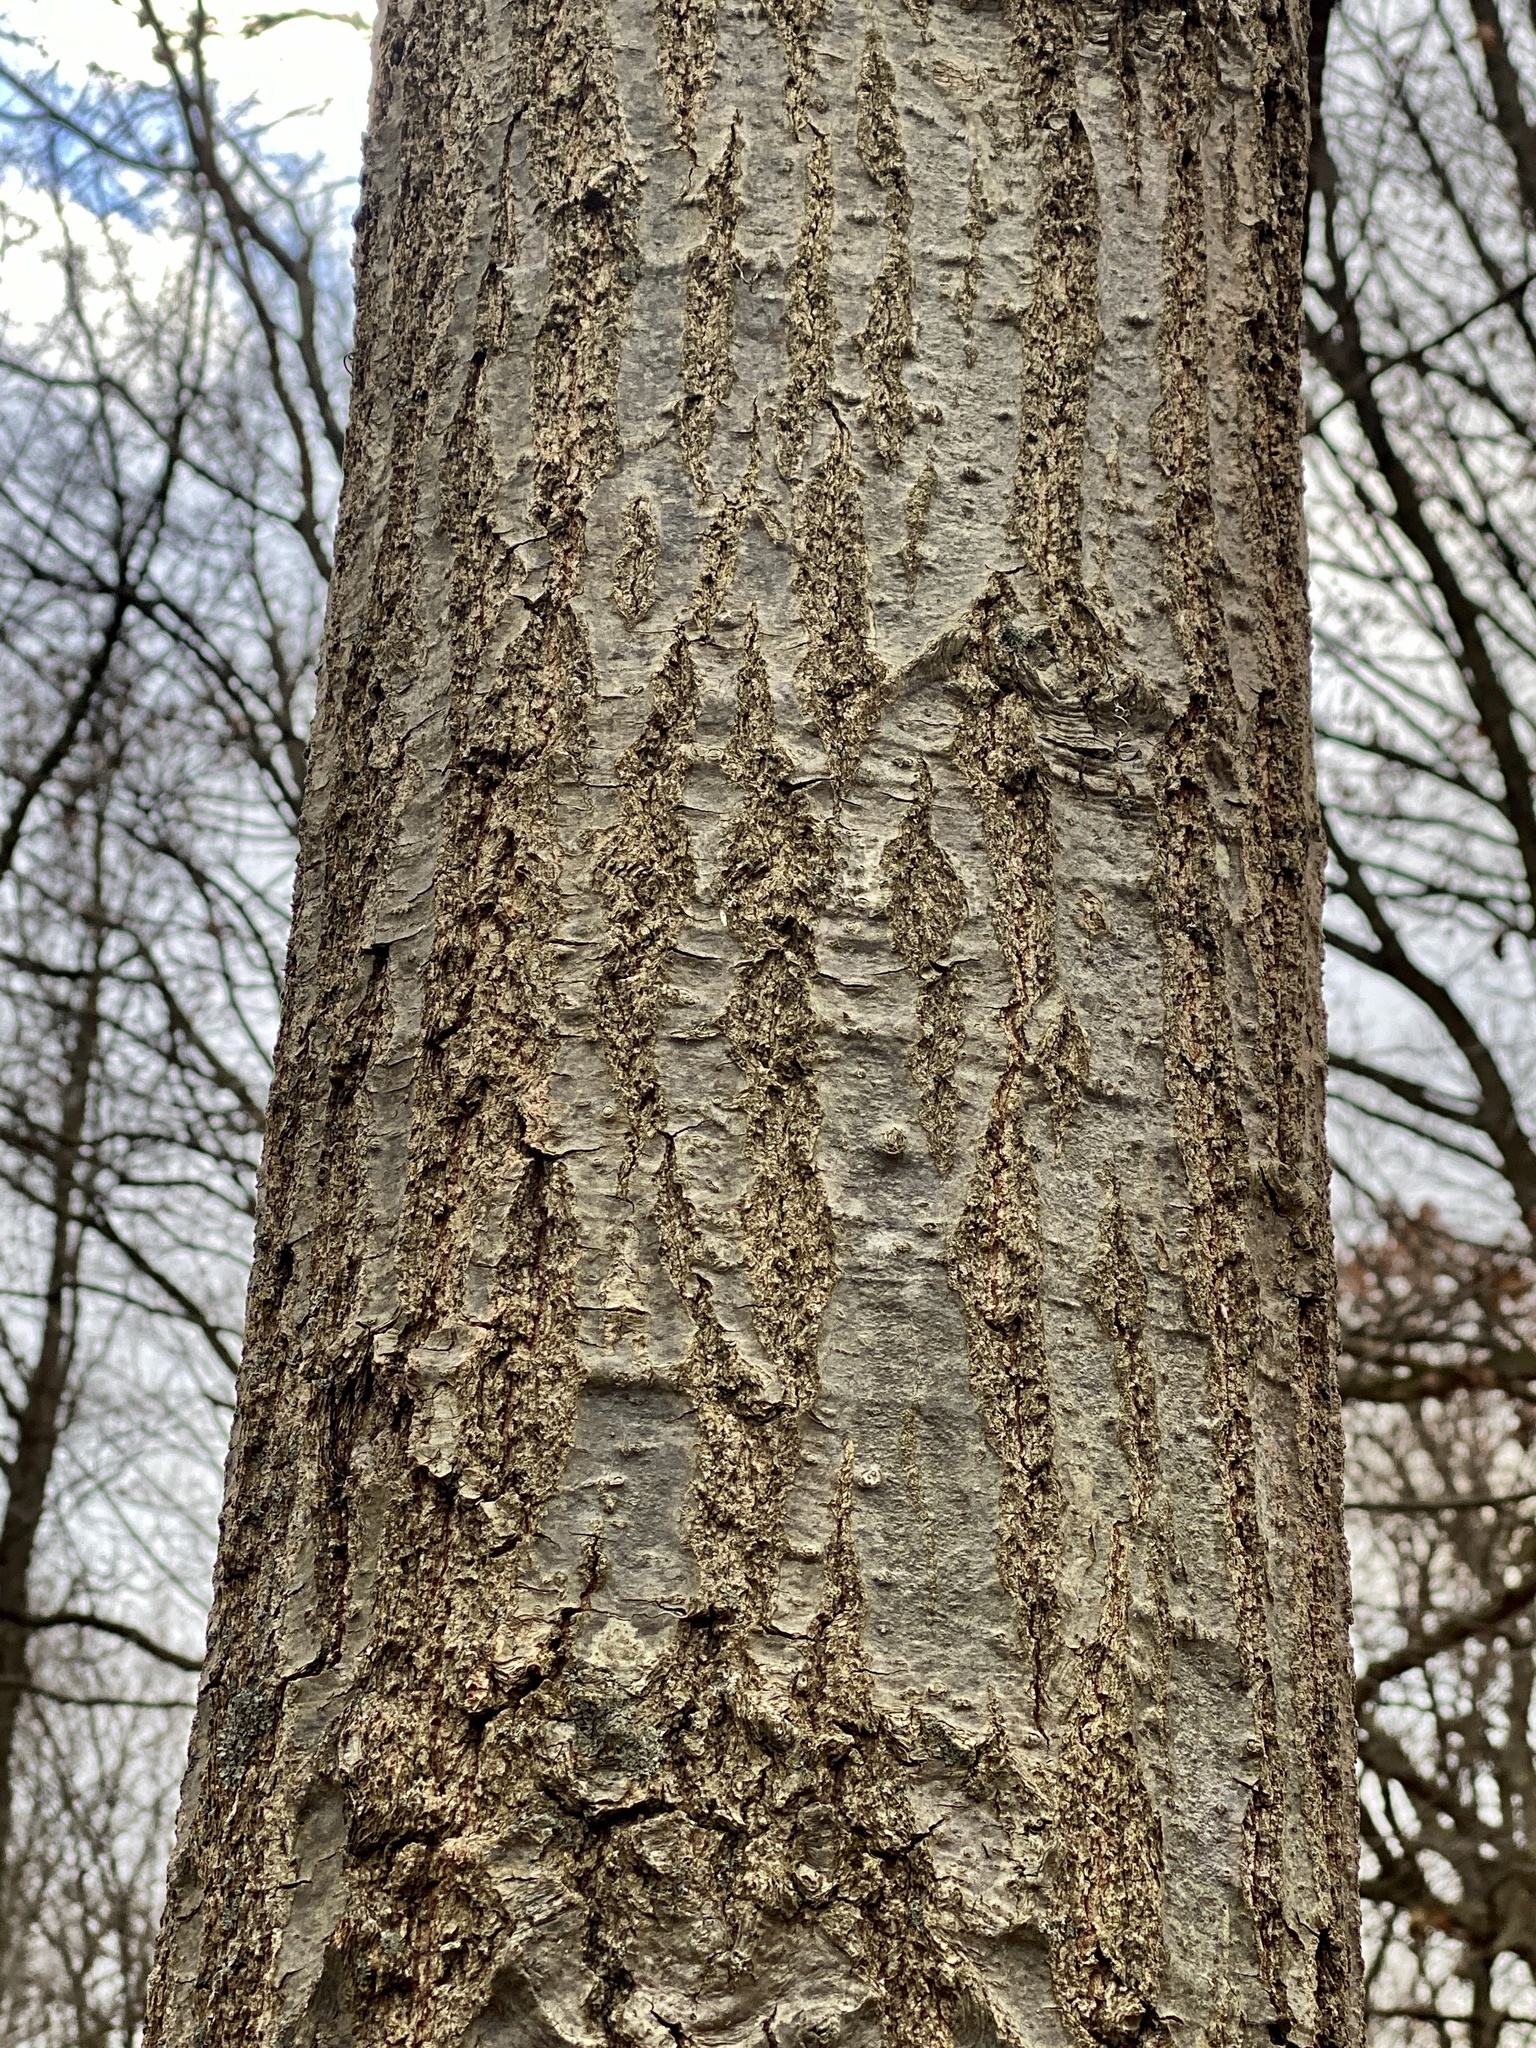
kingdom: Plantae
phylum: Tracheophyta
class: Magnoliopsida
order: Fagales
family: Fagaceae
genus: Quercus
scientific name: Quercus rubra
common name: Red oak
